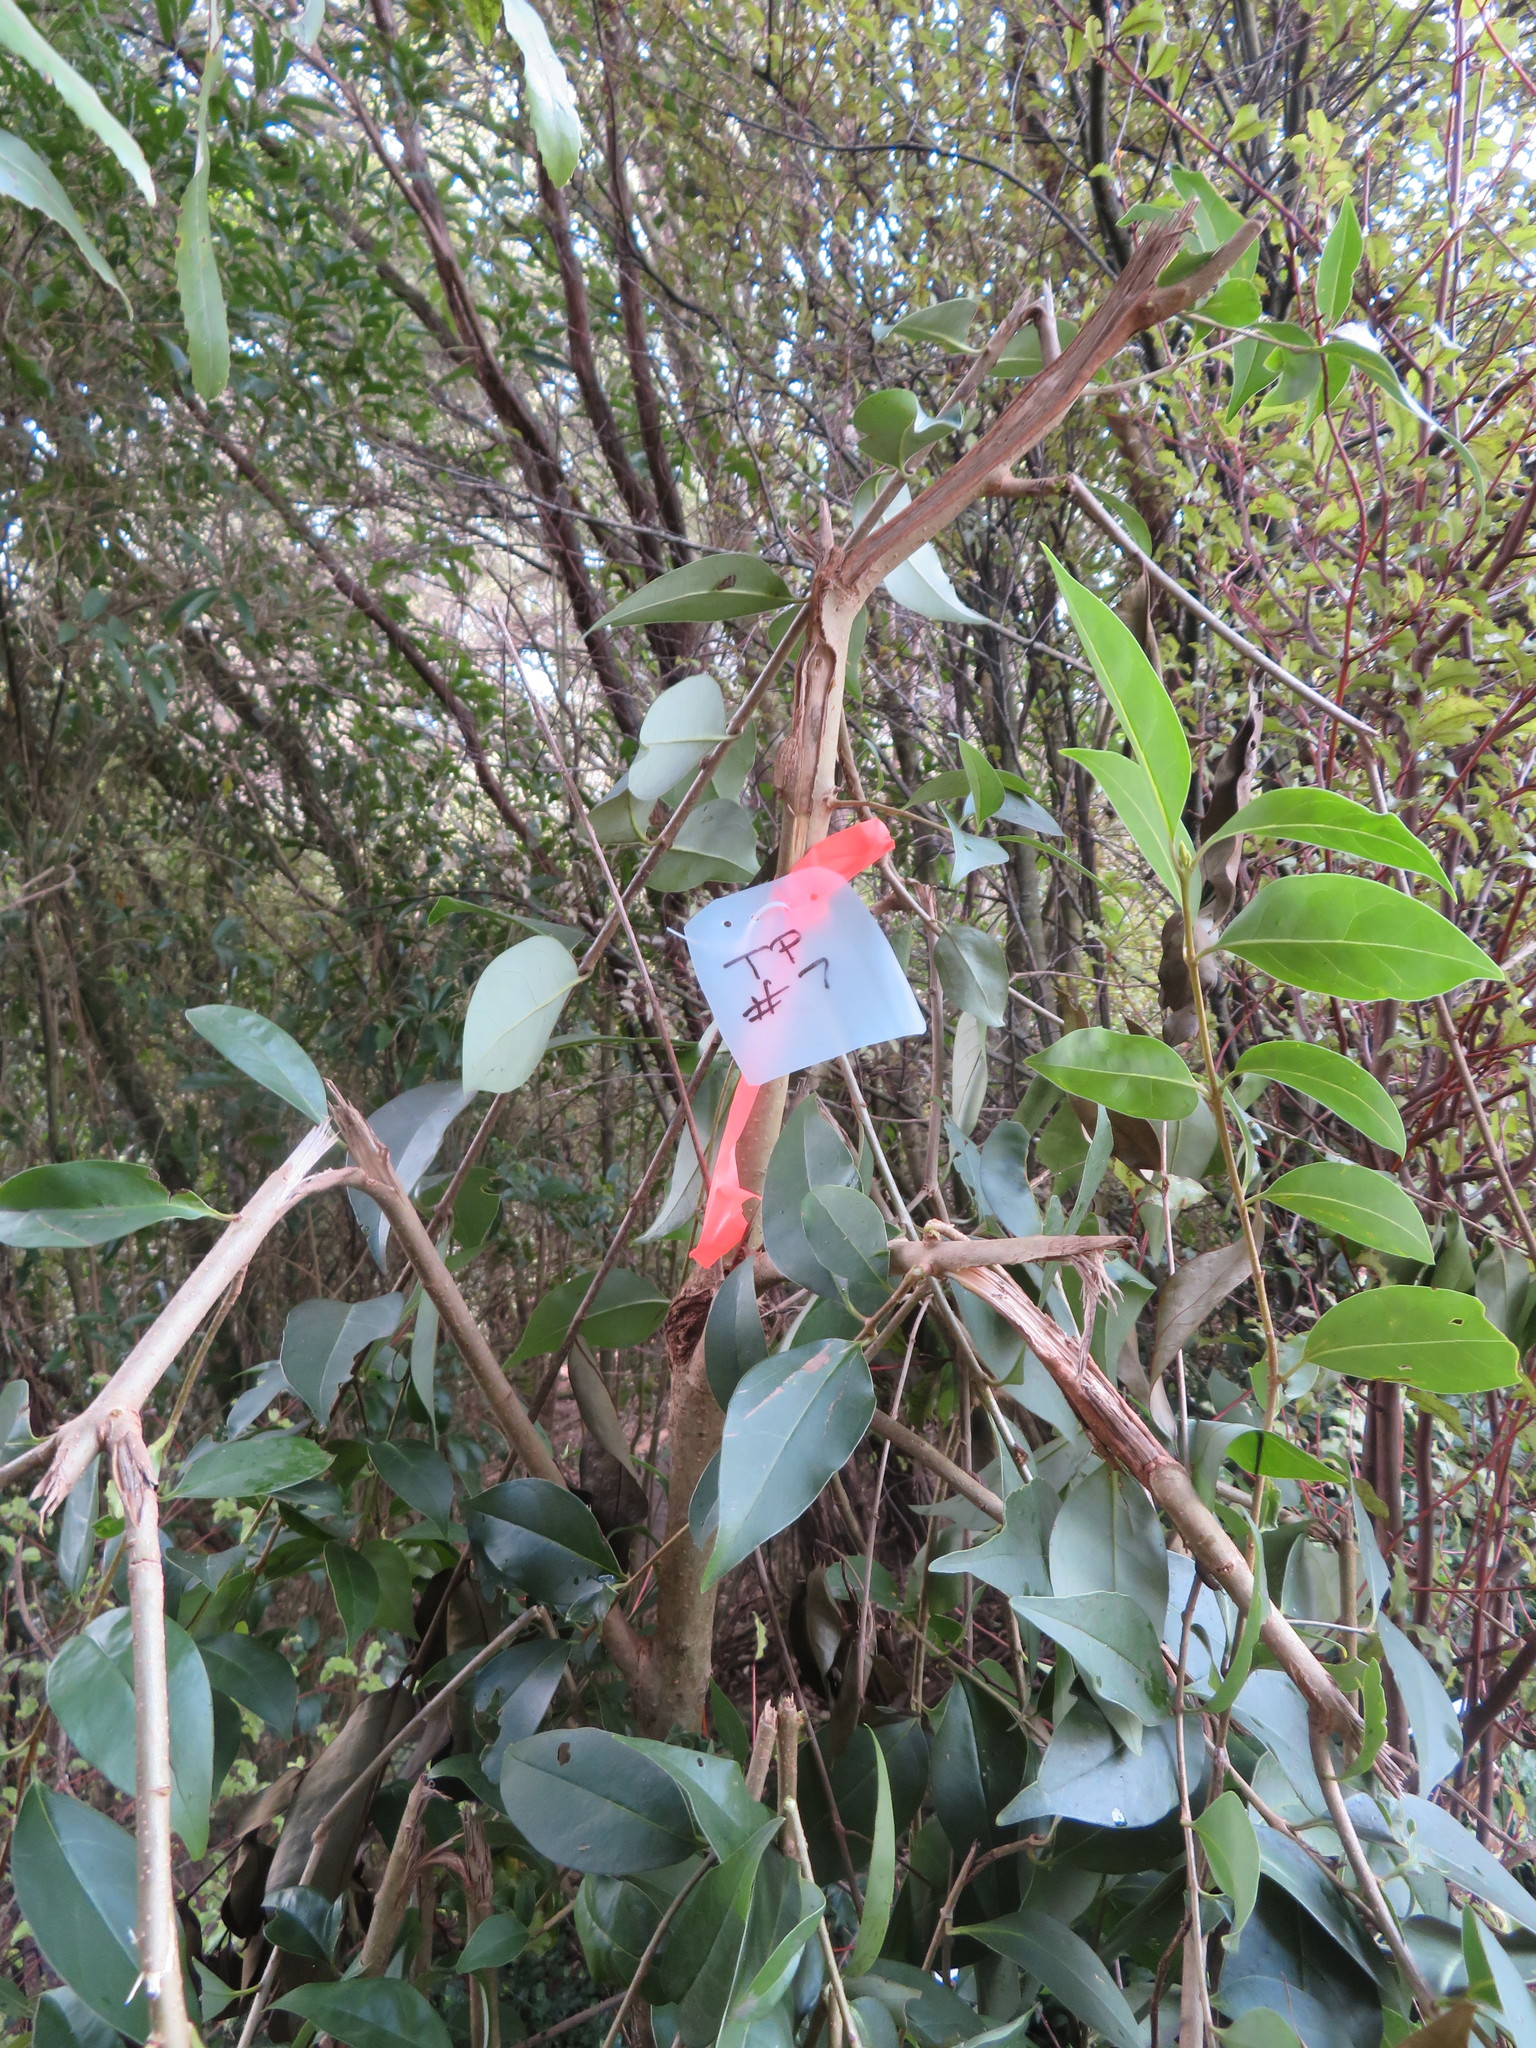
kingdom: Plantae
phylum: Tracheophyta
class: Magnoliopsida
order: Lamiales
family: Oleaceae
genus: Ligustrum
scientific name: Ligustrum lucidum
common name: Glossy privet
